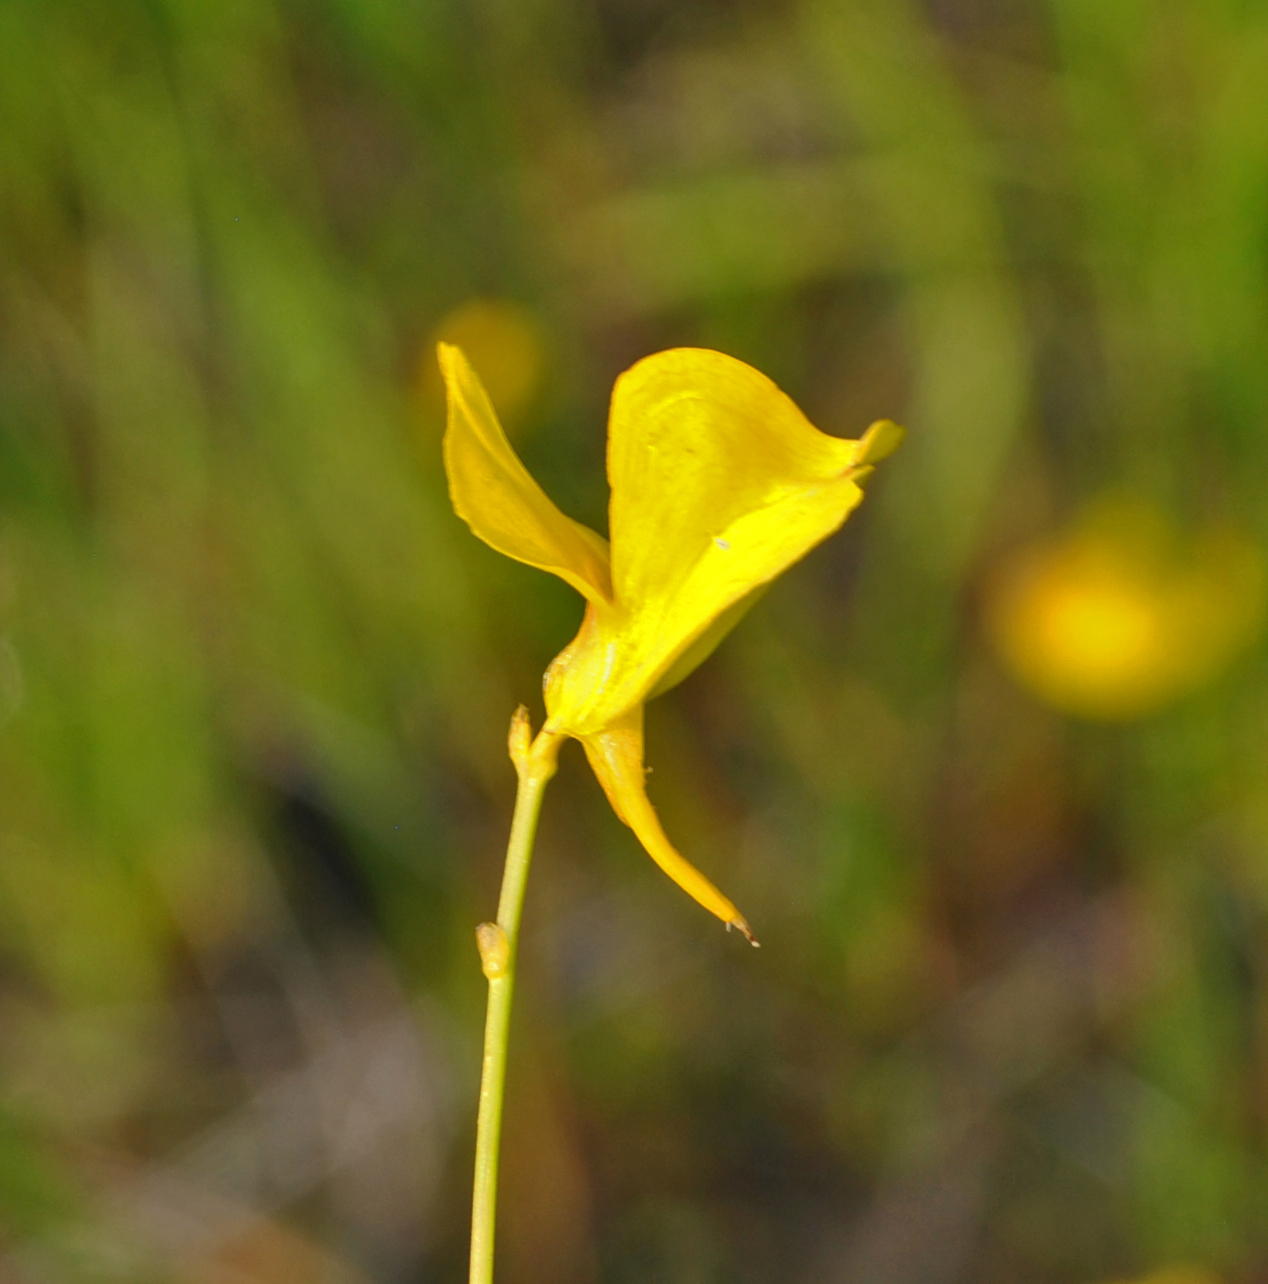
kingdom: Plantae
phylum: Tracheophyta
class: Magnoliopsida
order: Lamiales
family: Lentibulariaceae
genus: Utricularia
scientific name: Utricularia cornuta
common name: Horned bladderwort
